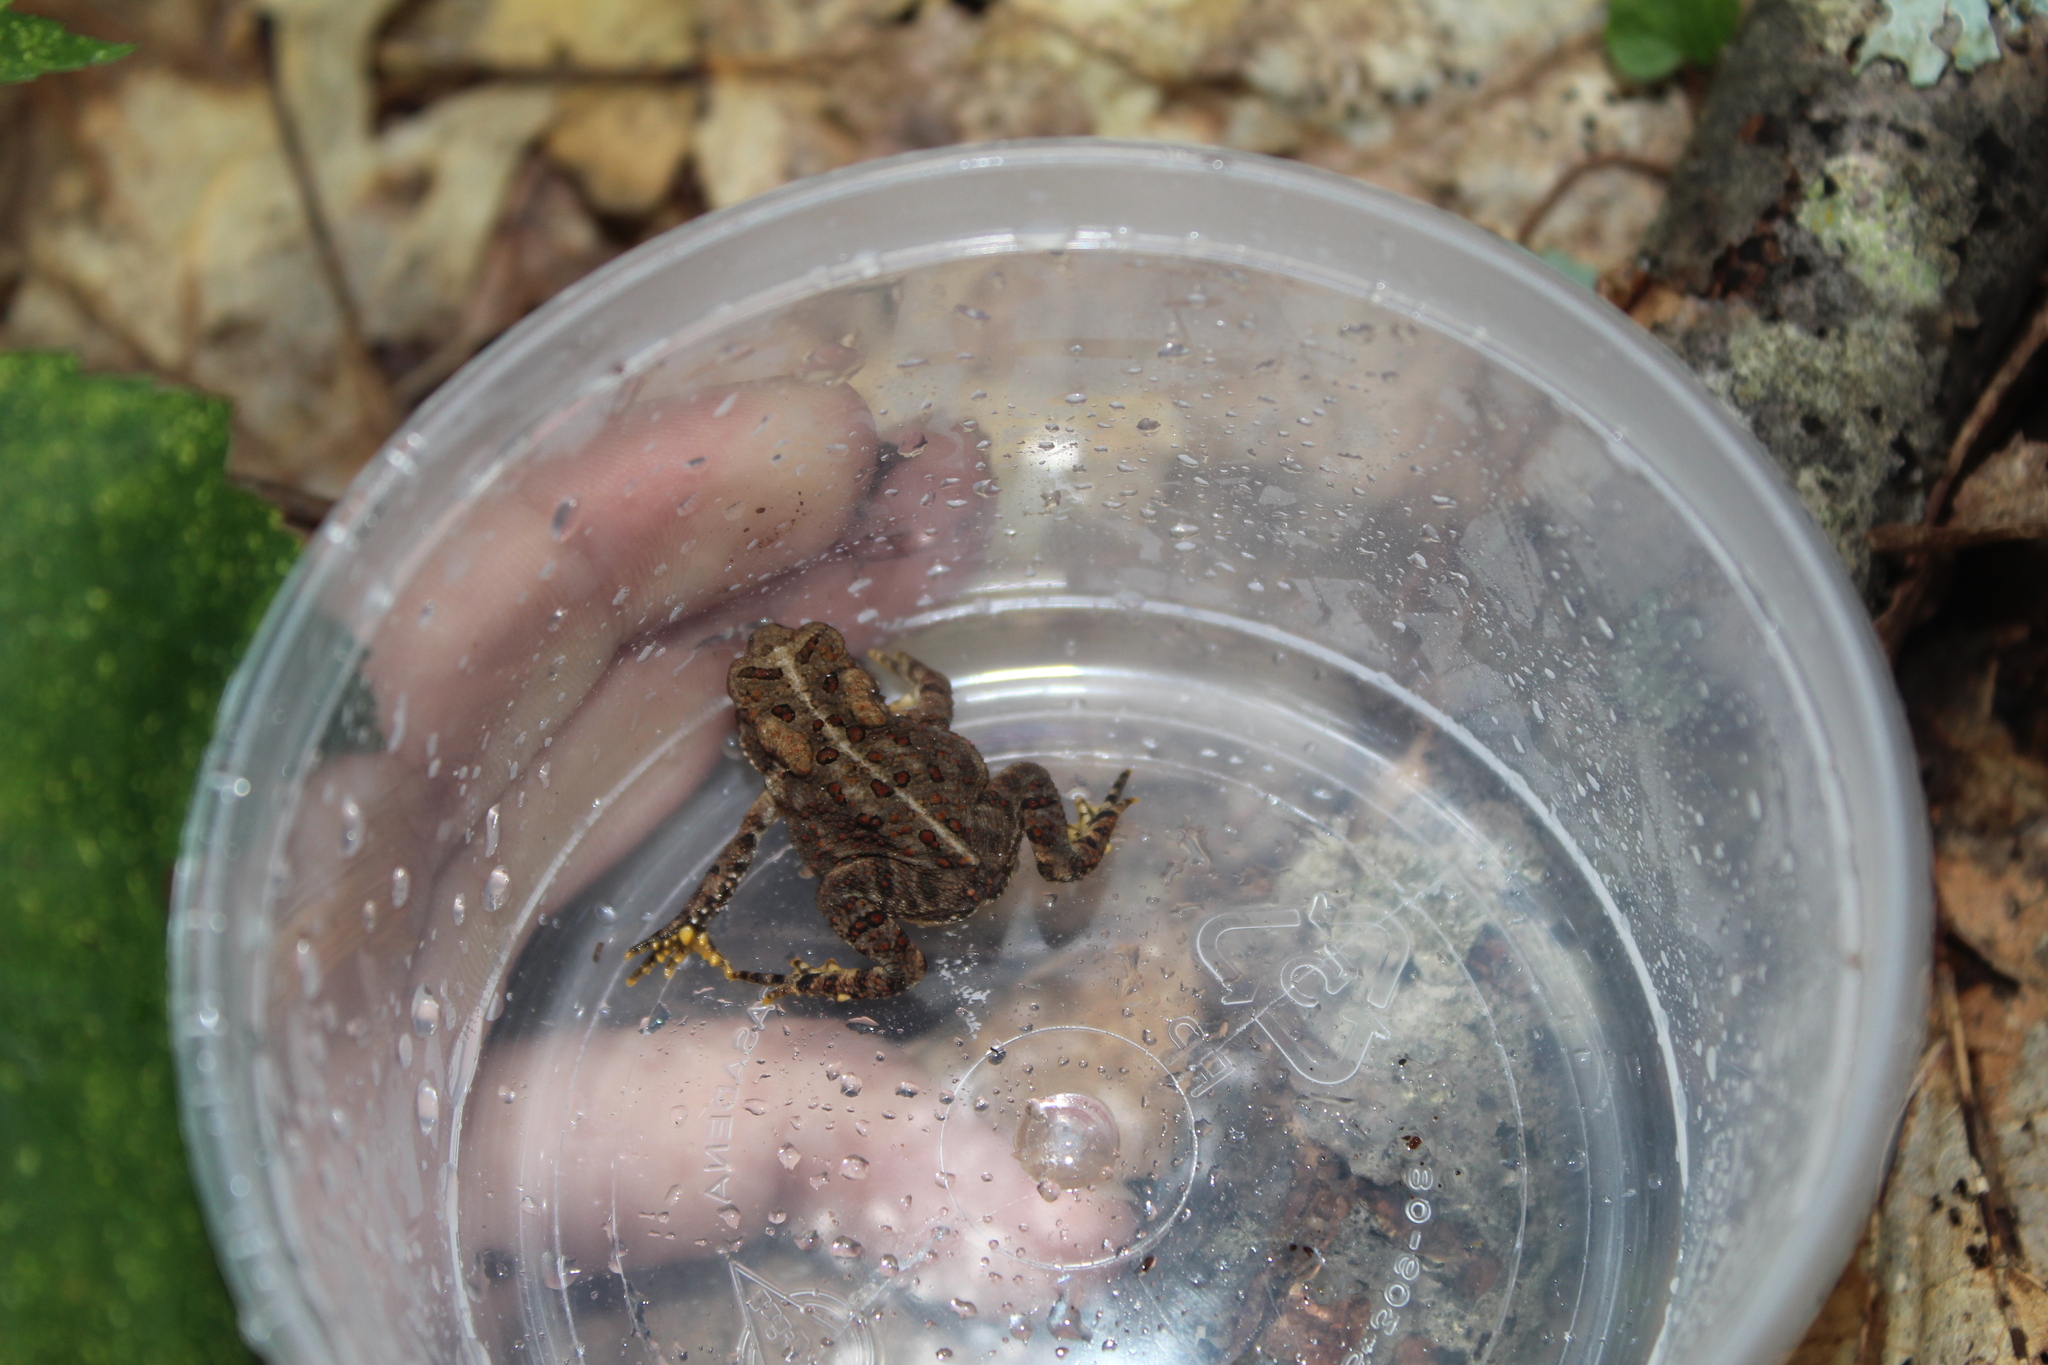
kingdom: Animalia
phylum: Chordata
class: Amphibia
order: Anura
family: Bufonidae
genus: Anaxyrus
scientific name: Anaxyrus americanus
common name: American toad
